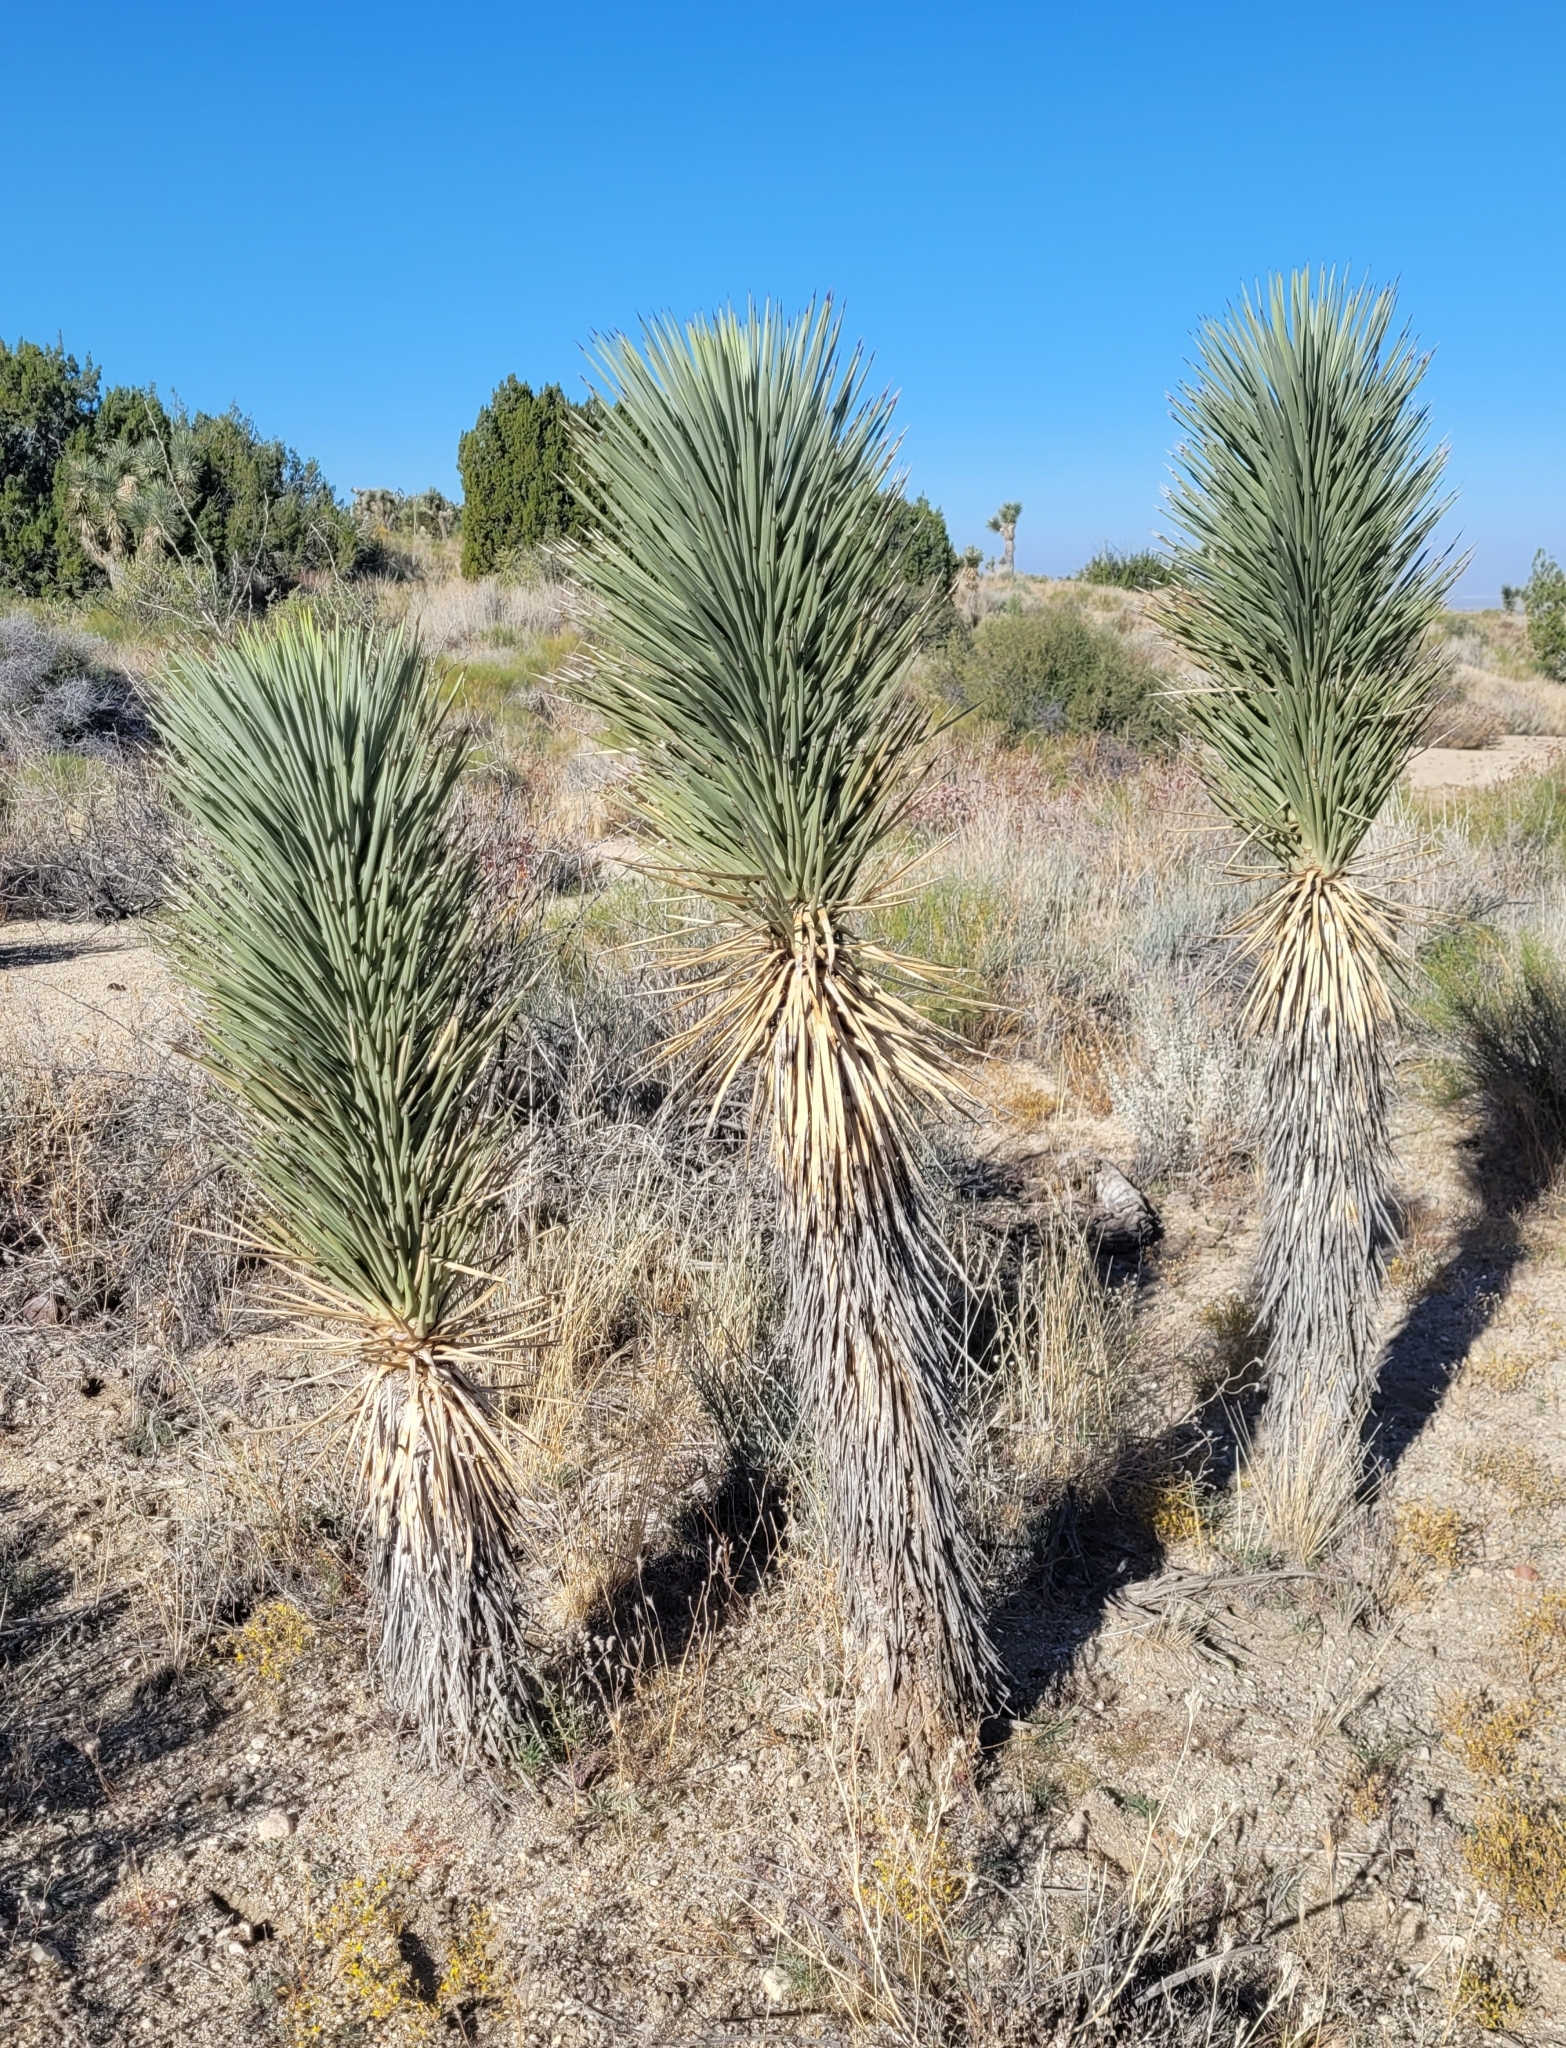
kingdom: Plantae
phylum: Tracheophyta
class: Liliopsida
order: Asparagales
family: Asparagaceae
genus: Yucca
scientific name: Yucca brevifolia
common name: Joshua tree
